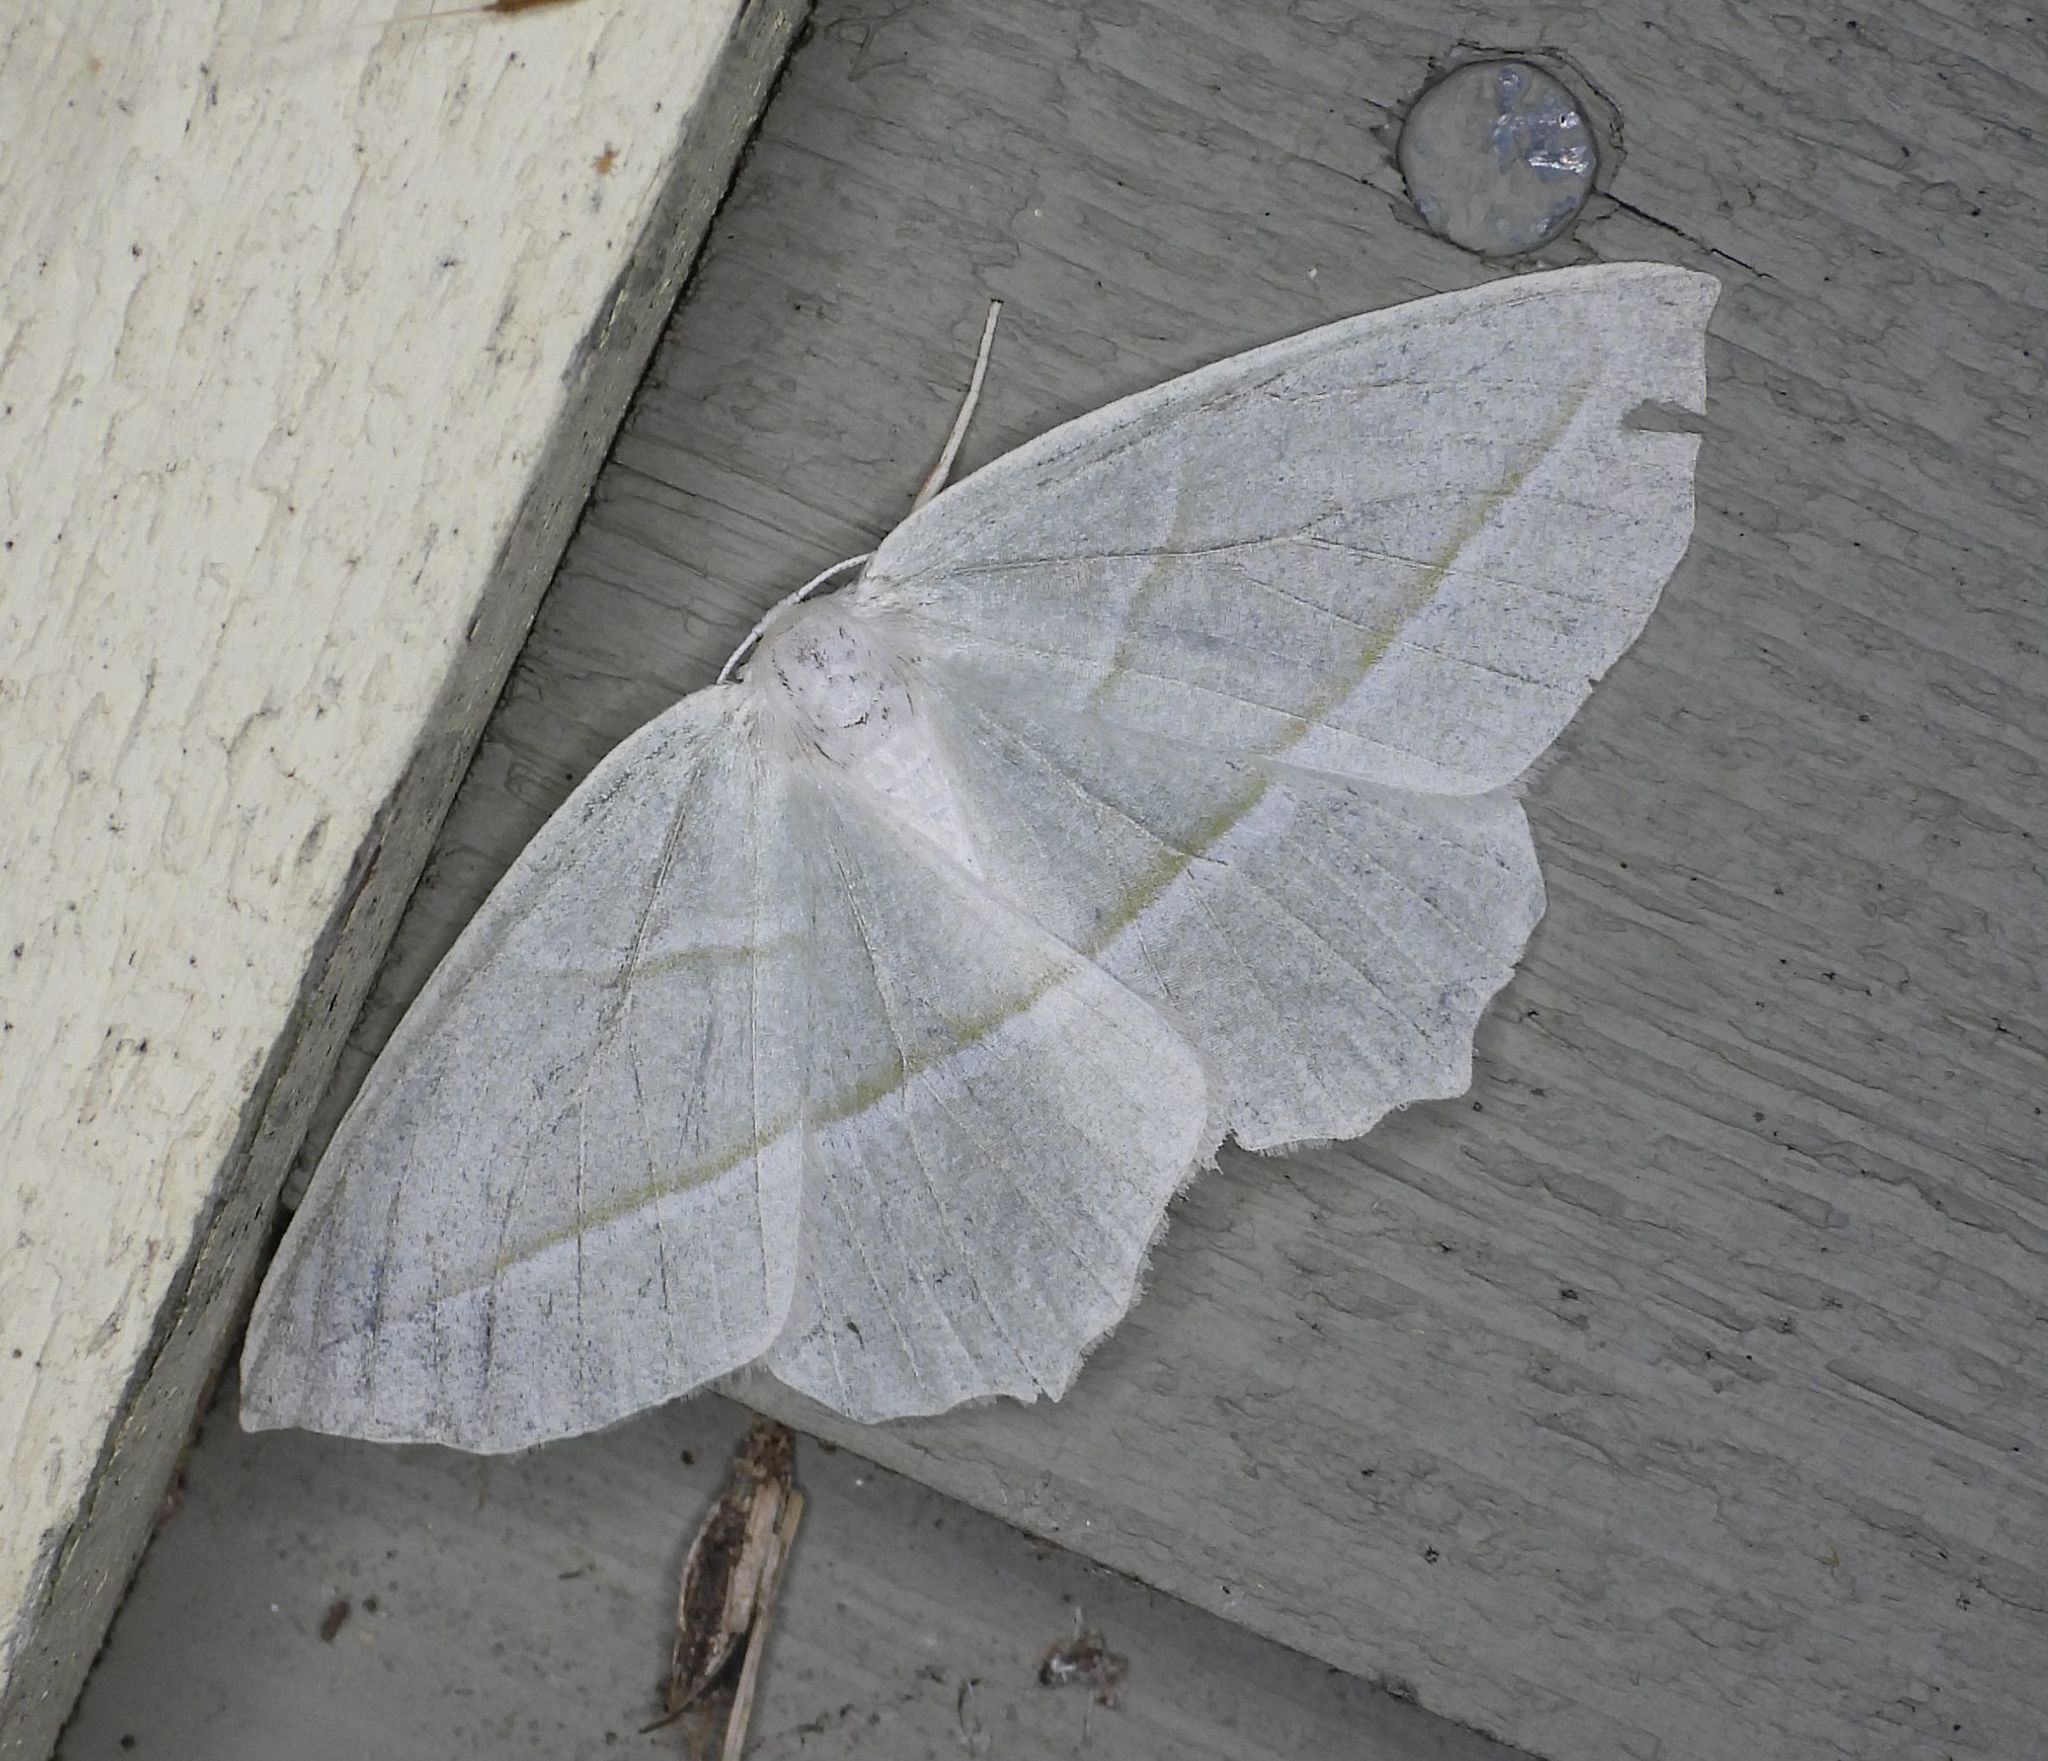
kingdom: Animalia
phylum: Arthropoda
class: Insecta
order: Lepidoptera
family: Geometridae
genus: Campaea
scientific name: Campaea perlata
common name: Fringed looper
